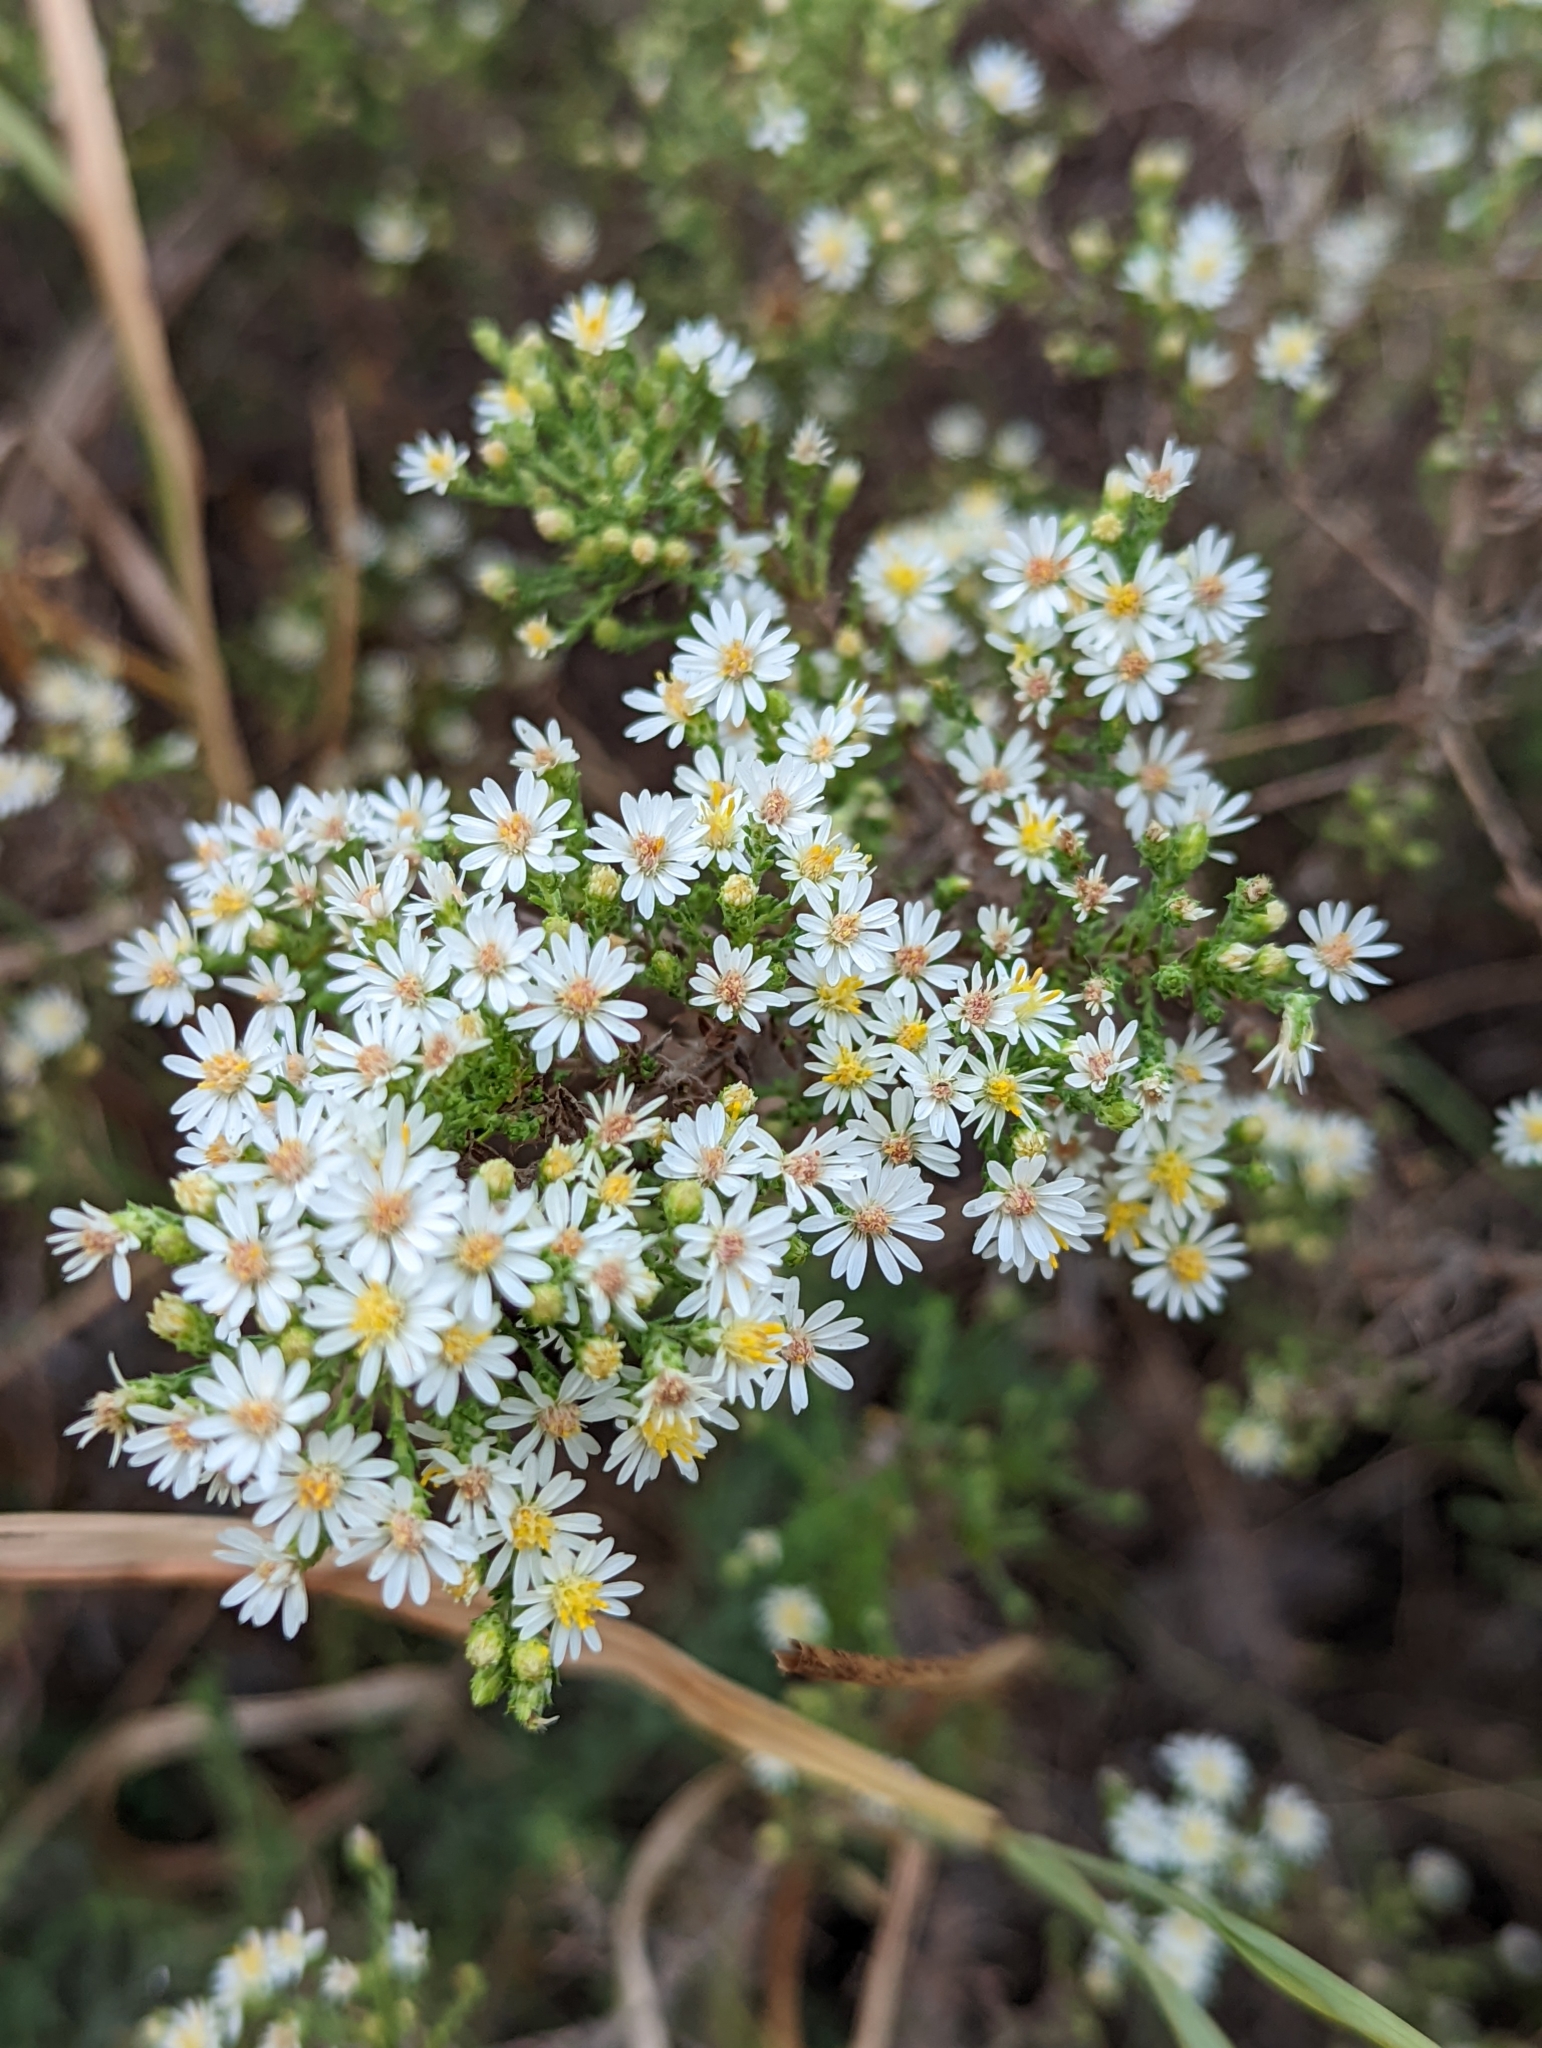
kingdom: Plantae
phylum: Tracheophyta
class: Magnoliopsida
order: Asterales
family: Asteraceae
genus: Symphyotrichum
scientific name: Symphyotrichum ericoides
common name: Heath aster
